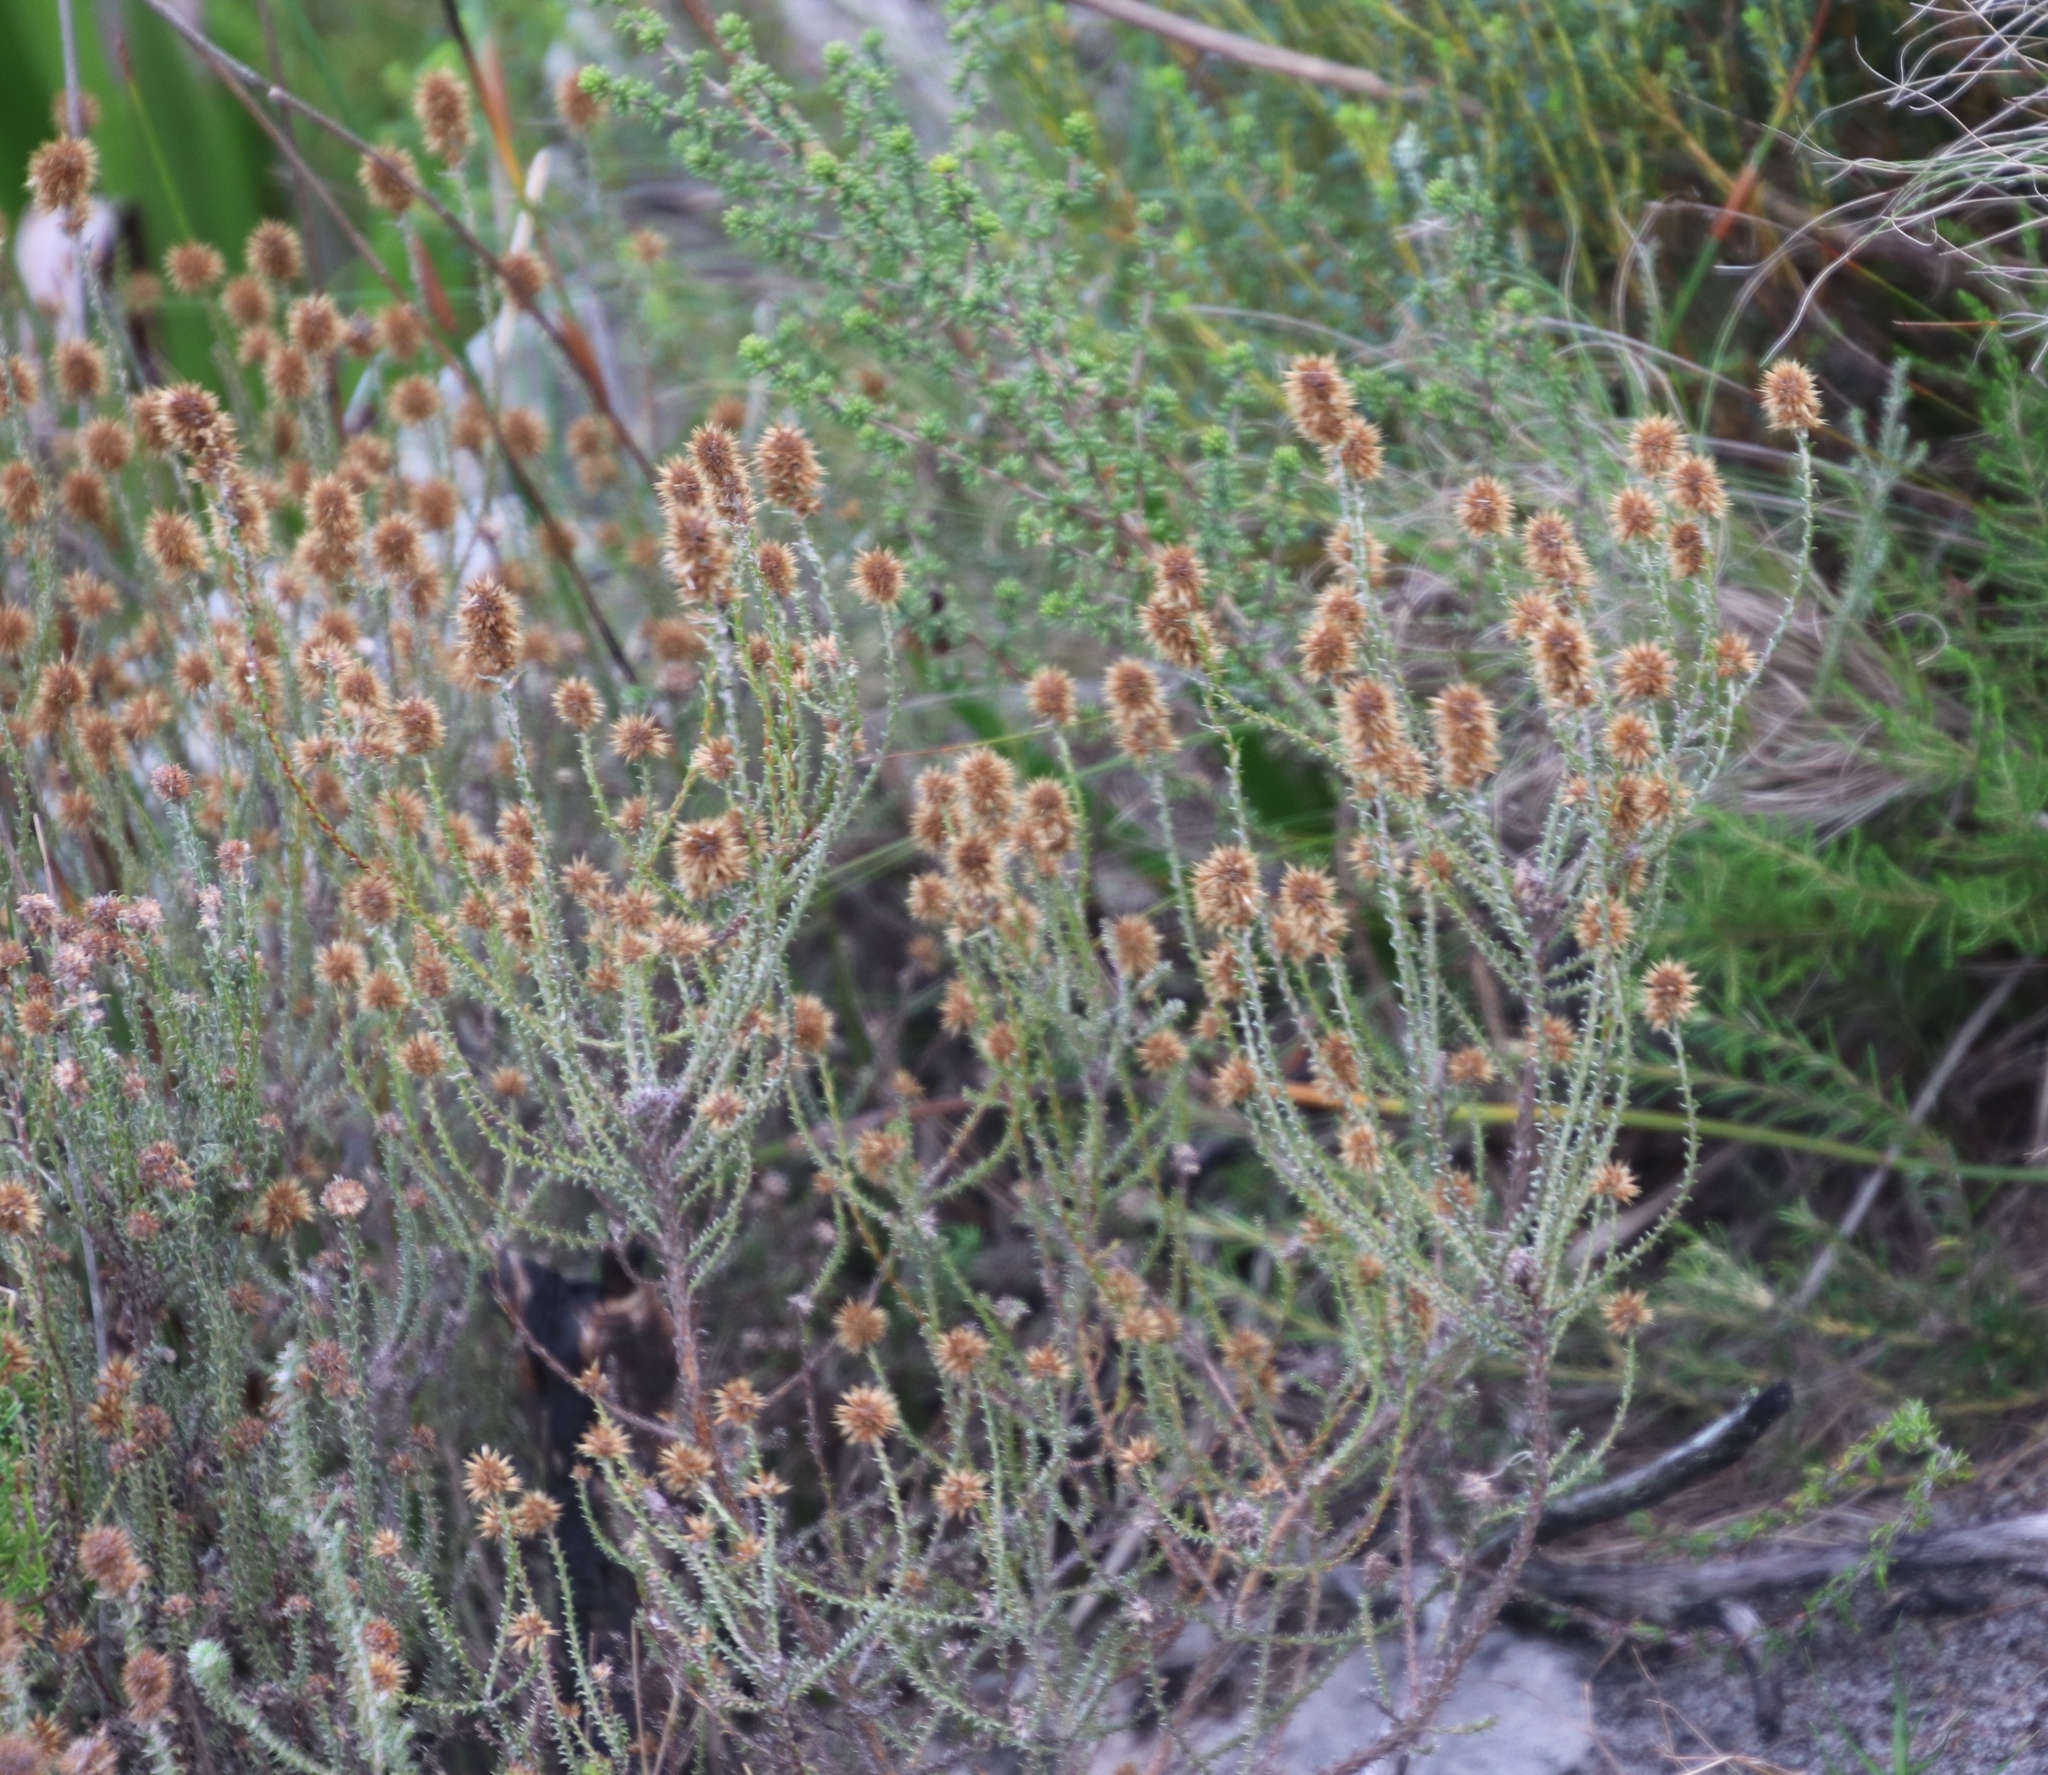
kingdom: Plantae
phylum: Tracheophyta
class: Magnoliopsida
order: Asterales
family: Asteraceae
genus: Seriphium
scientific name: Seriphium cinereum
